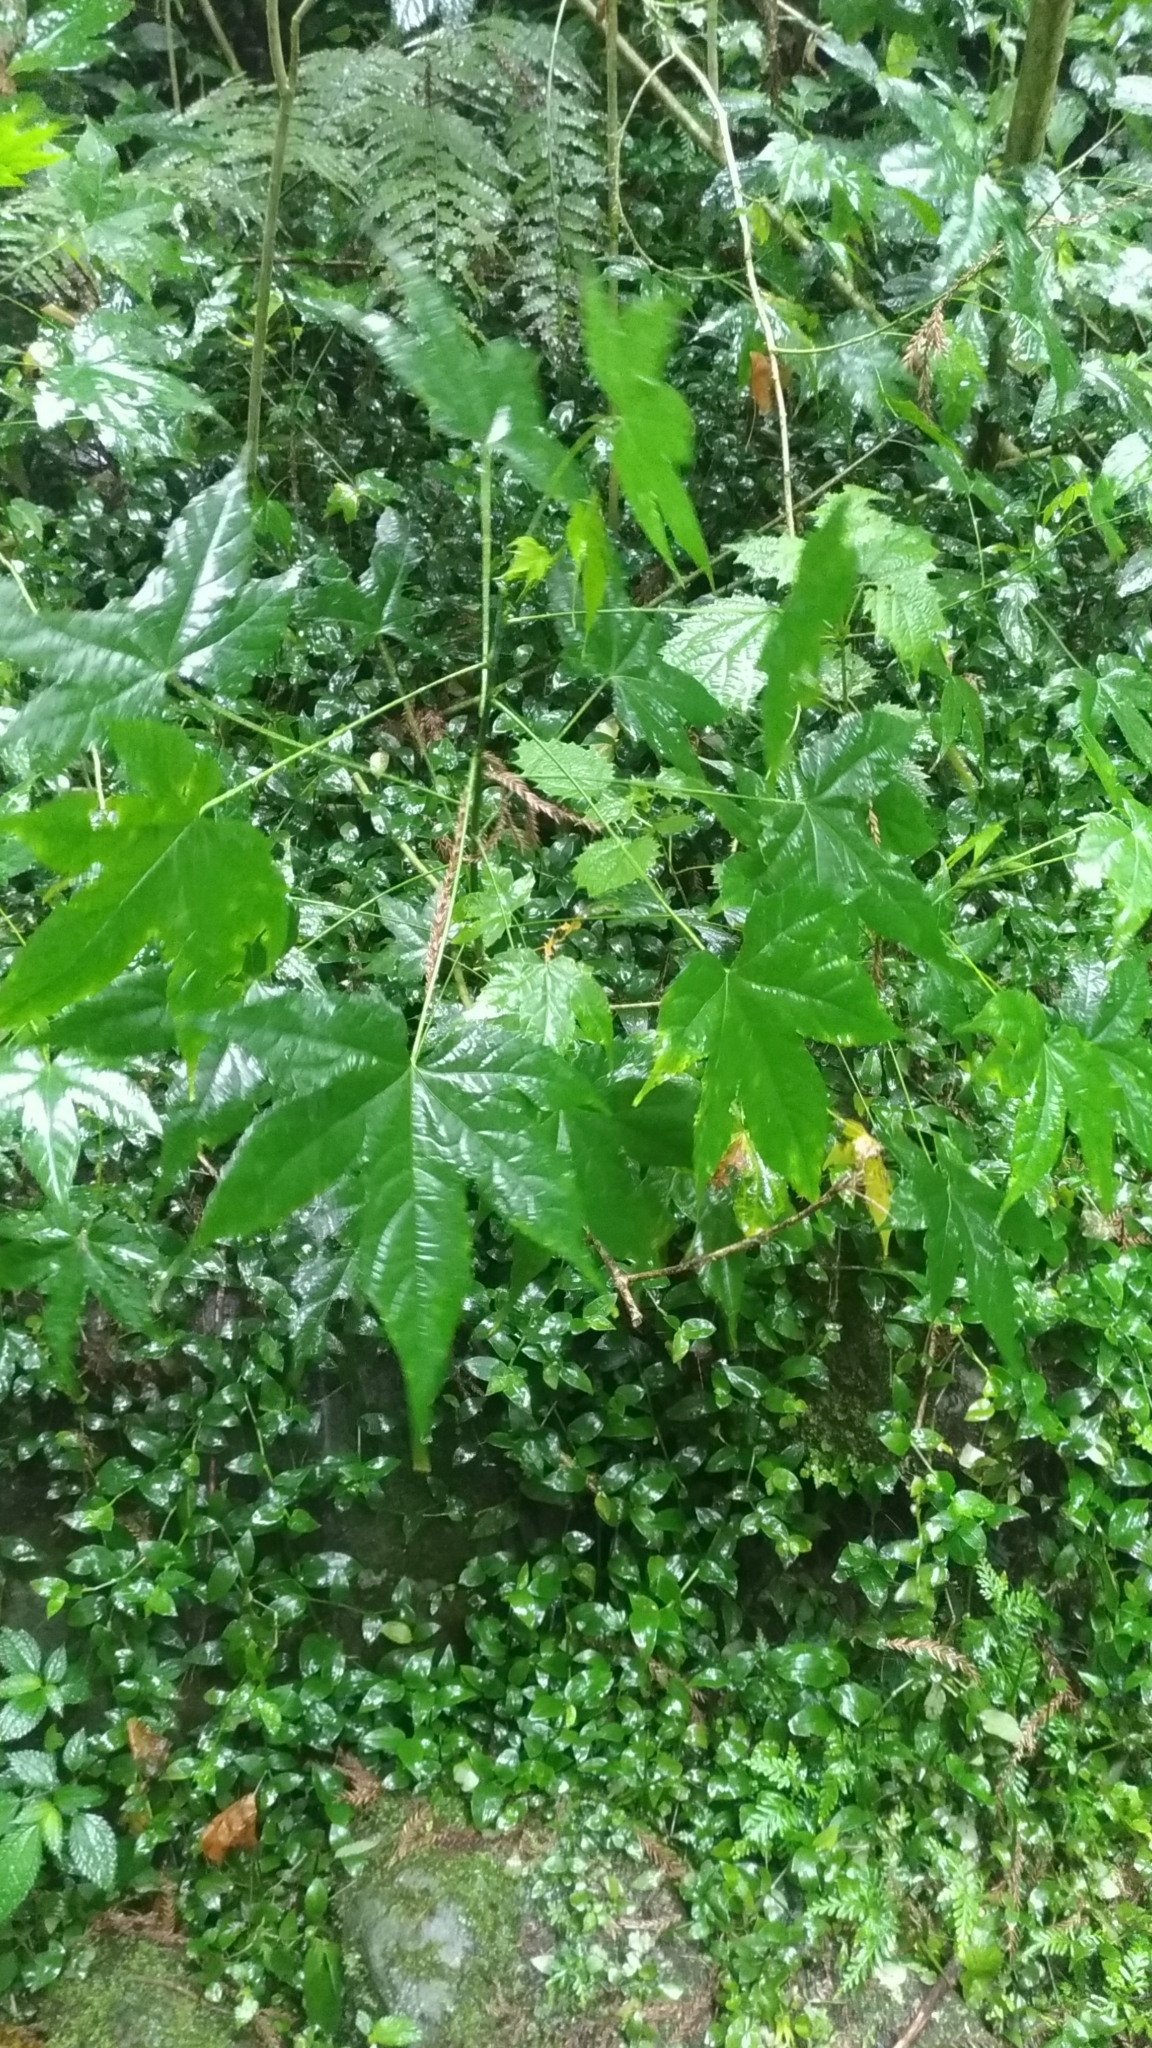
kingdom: Plantae
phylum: Tracheophyta
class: Magnoliopsida
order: Malvales
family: Malvaceae
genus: Callianthe
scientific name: Callianthe picta
